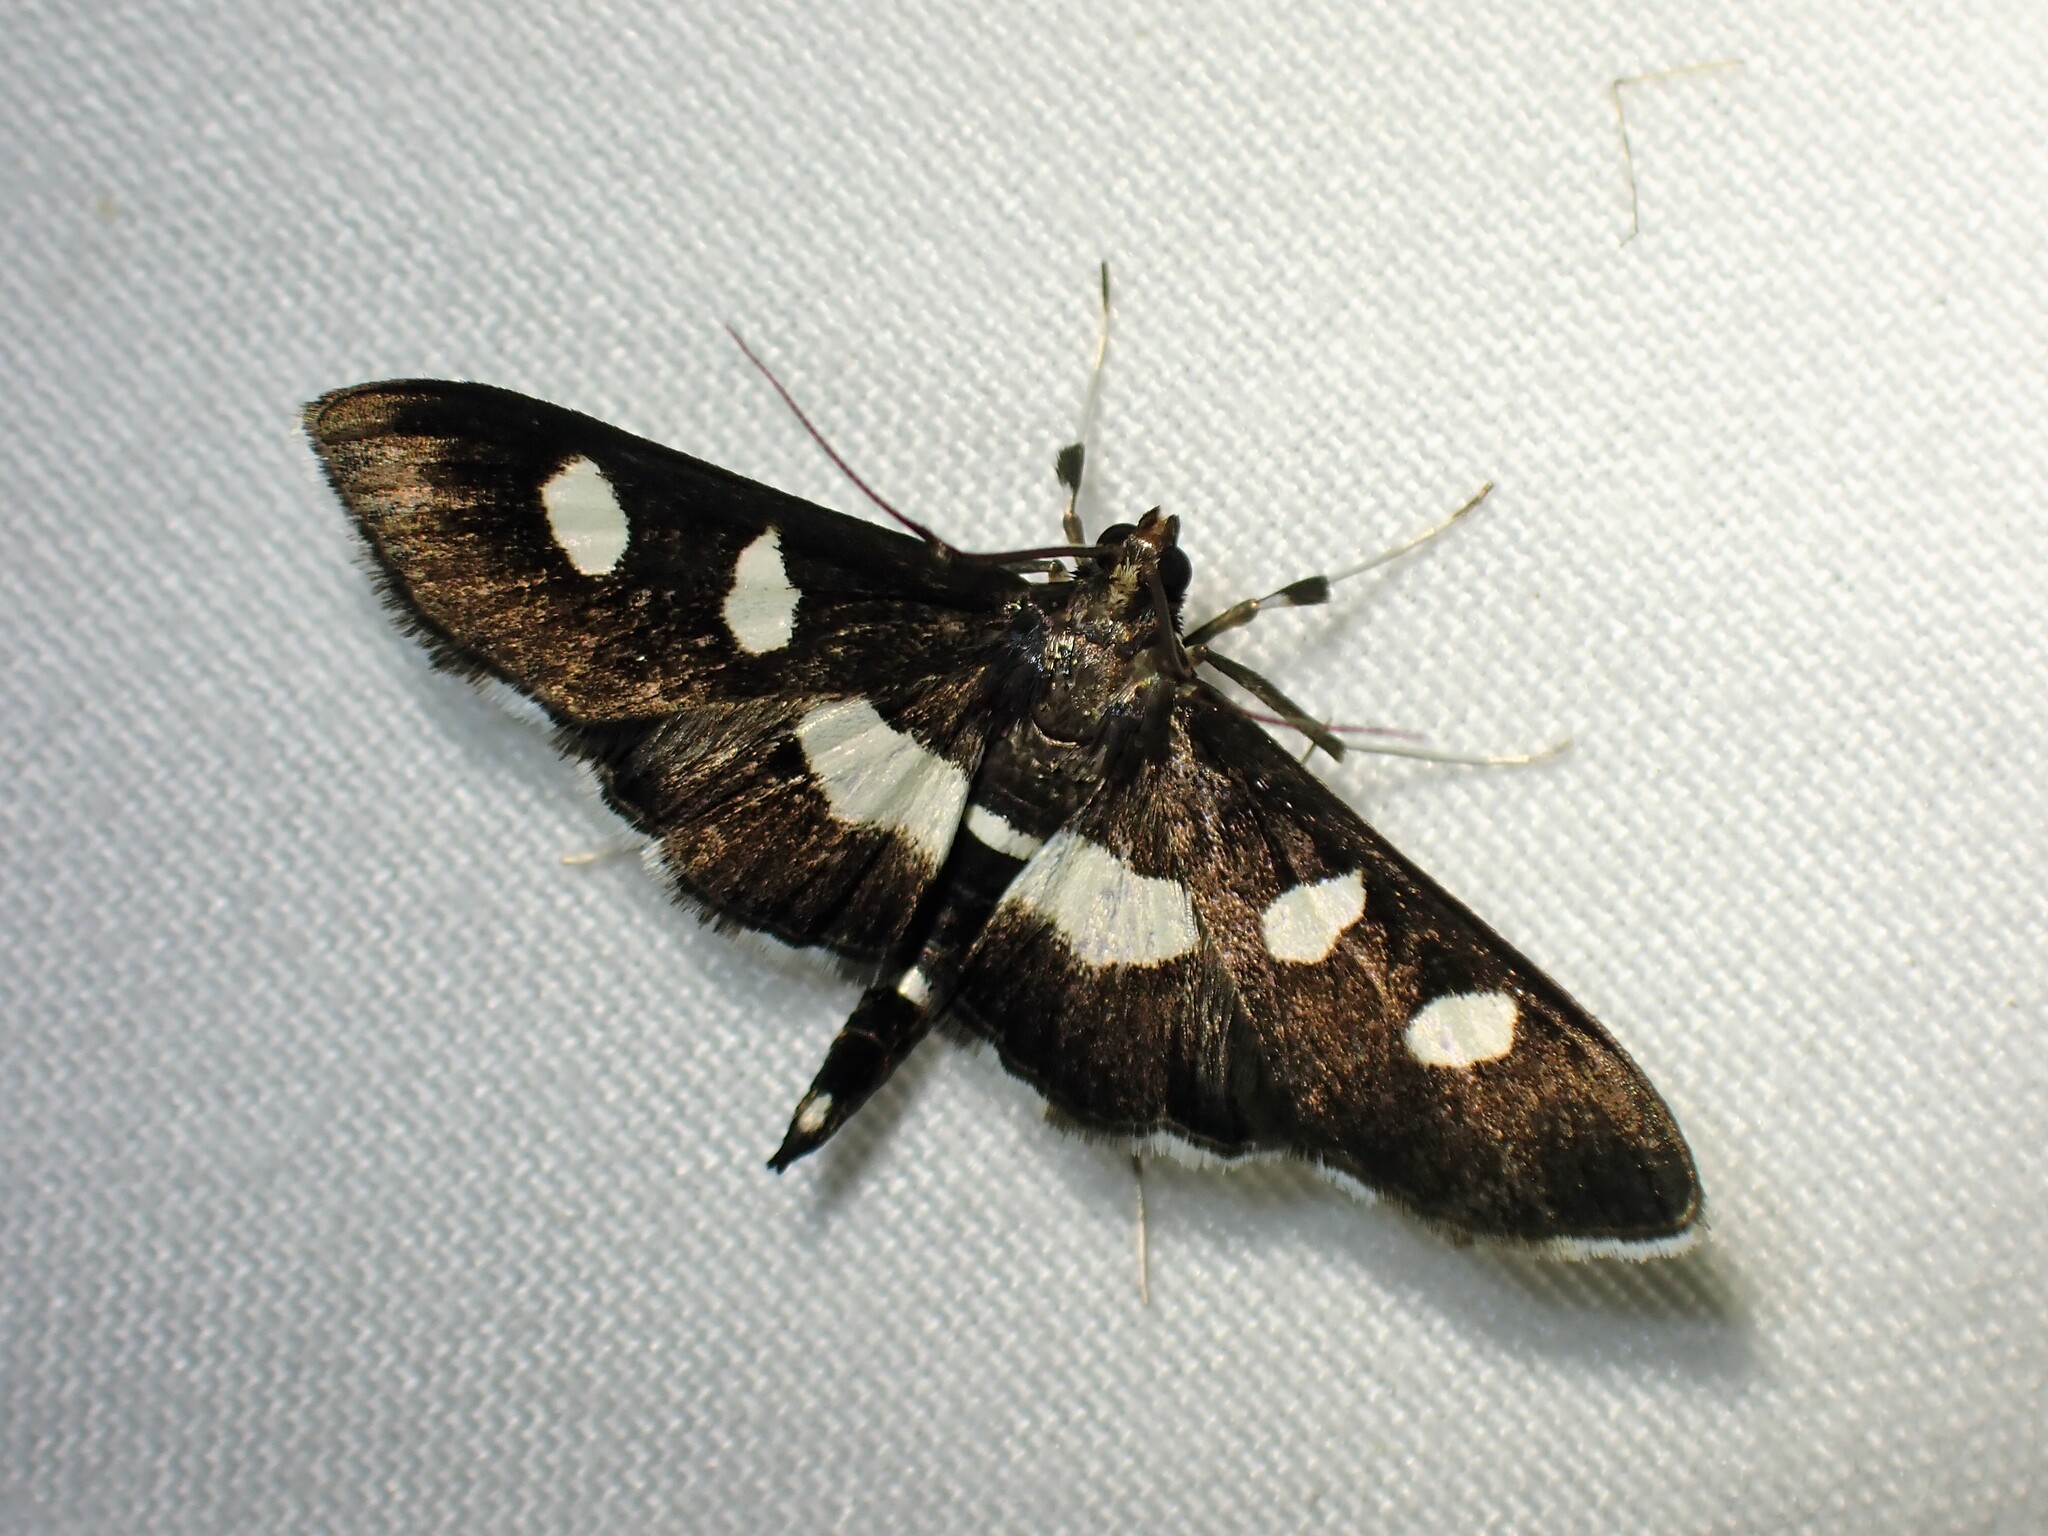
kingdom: Animalia
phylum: Arthropoda
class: Insecta
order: Lepidoptera
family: Crambidae
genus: Desmia
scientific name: Desmia funeralis
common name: Grape leaf folder moth
